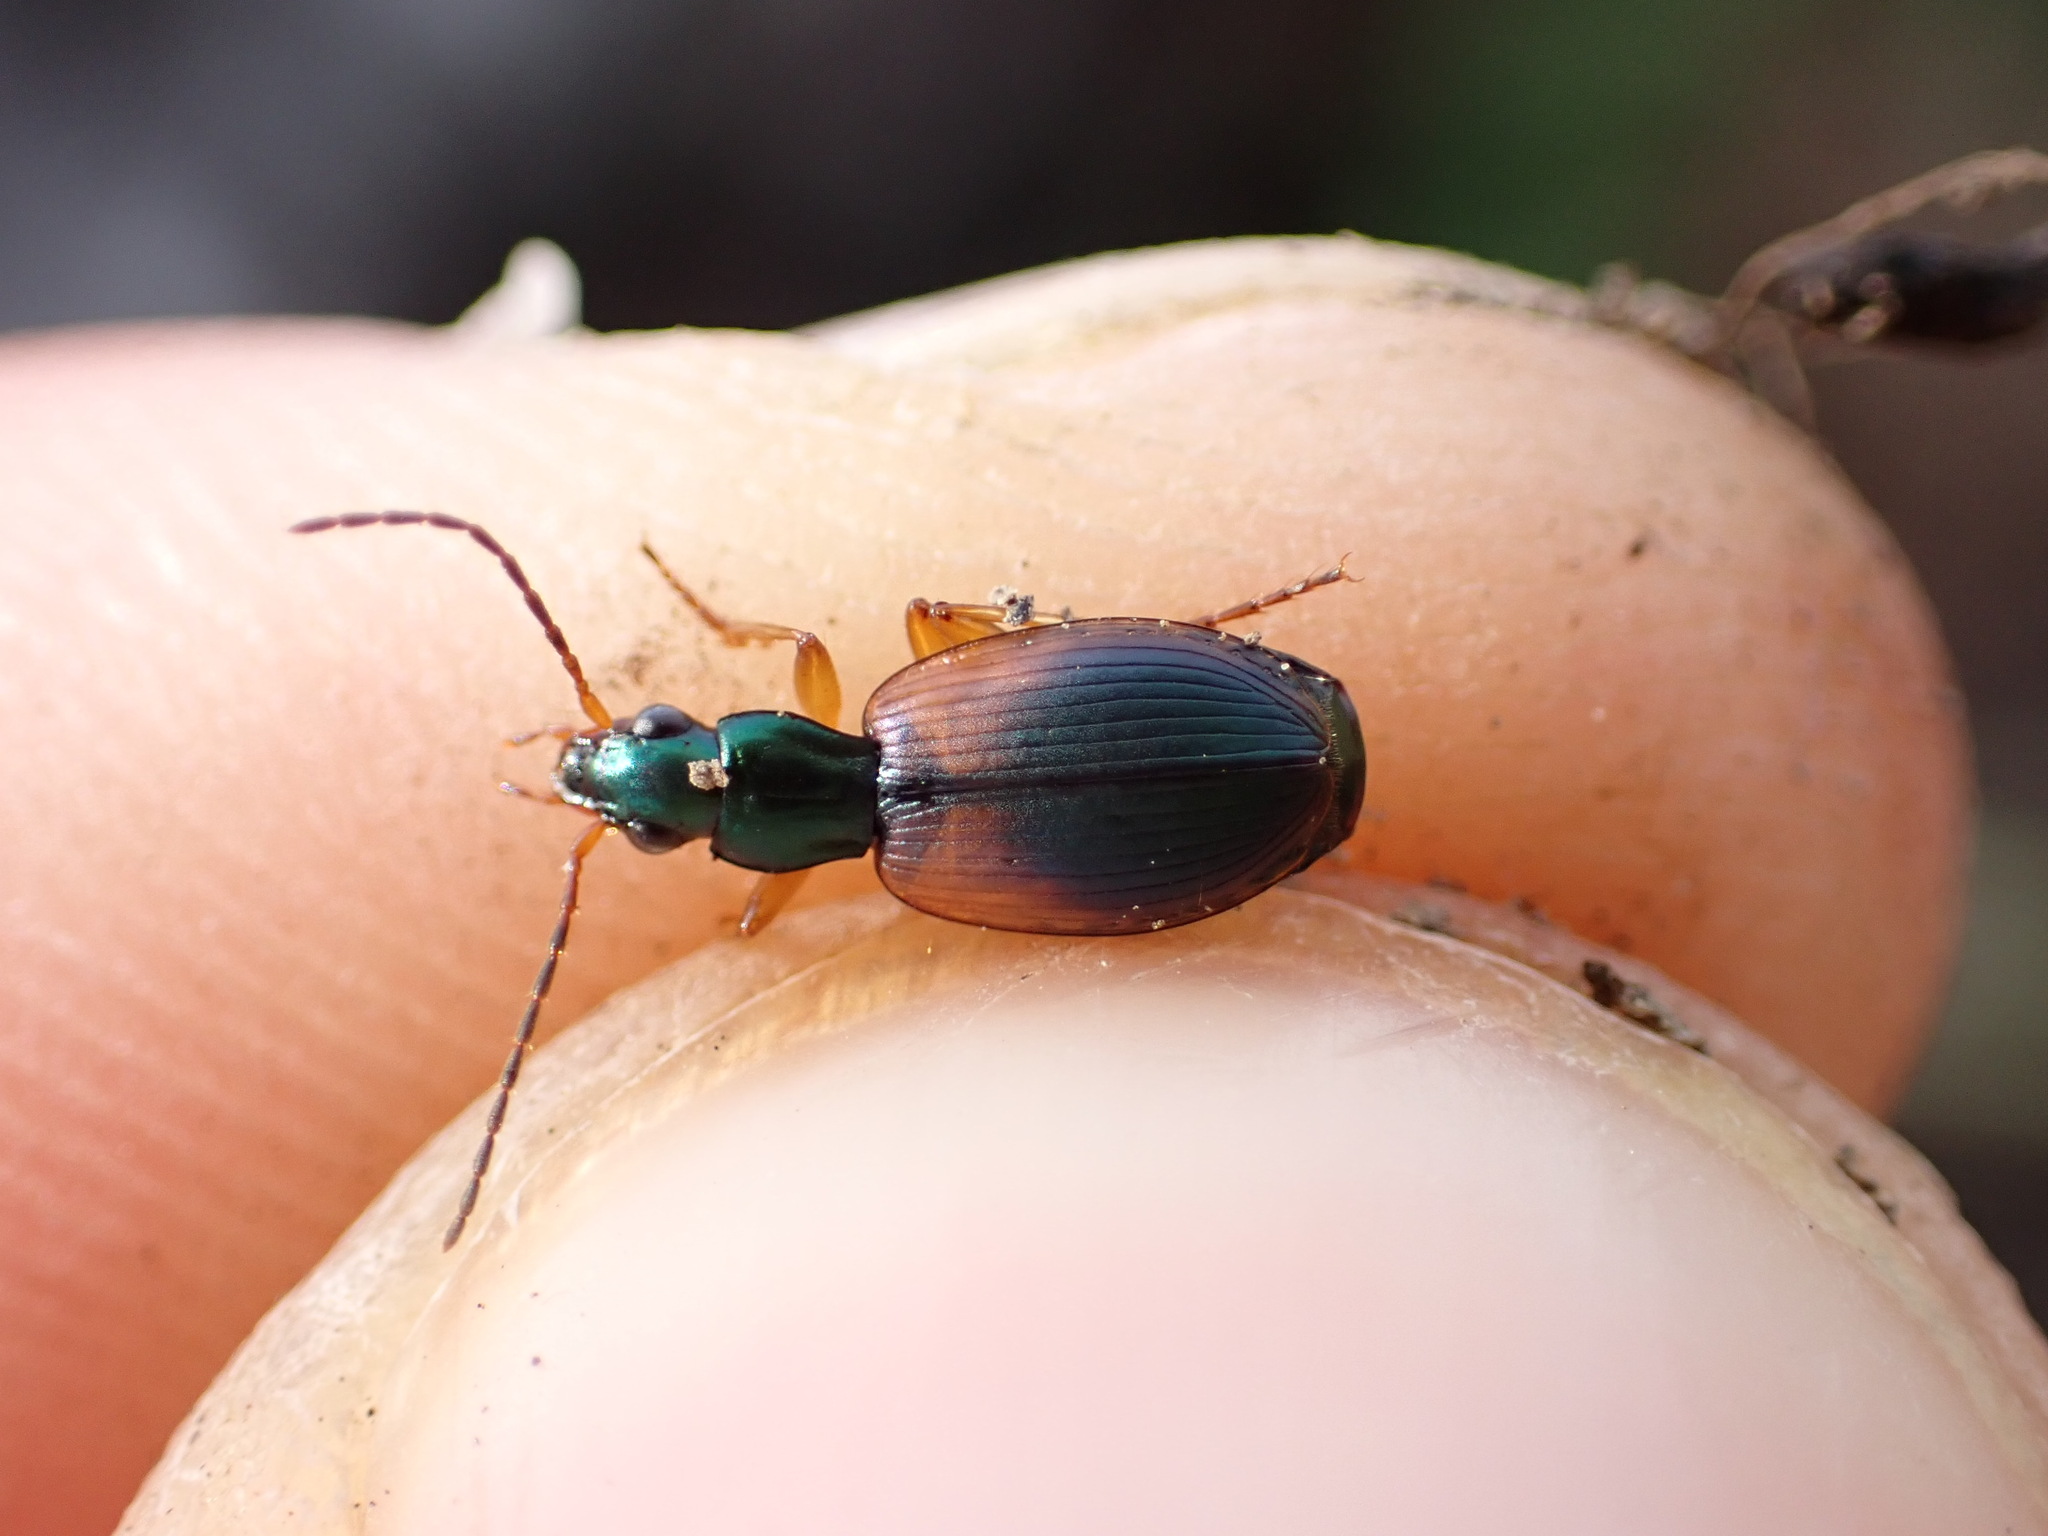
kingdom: Animalia
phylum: Arthropoda
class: Insecta
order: Coleoptera
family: Carabidae
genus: Anchomenus
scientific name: Anchomenus dorsalis
